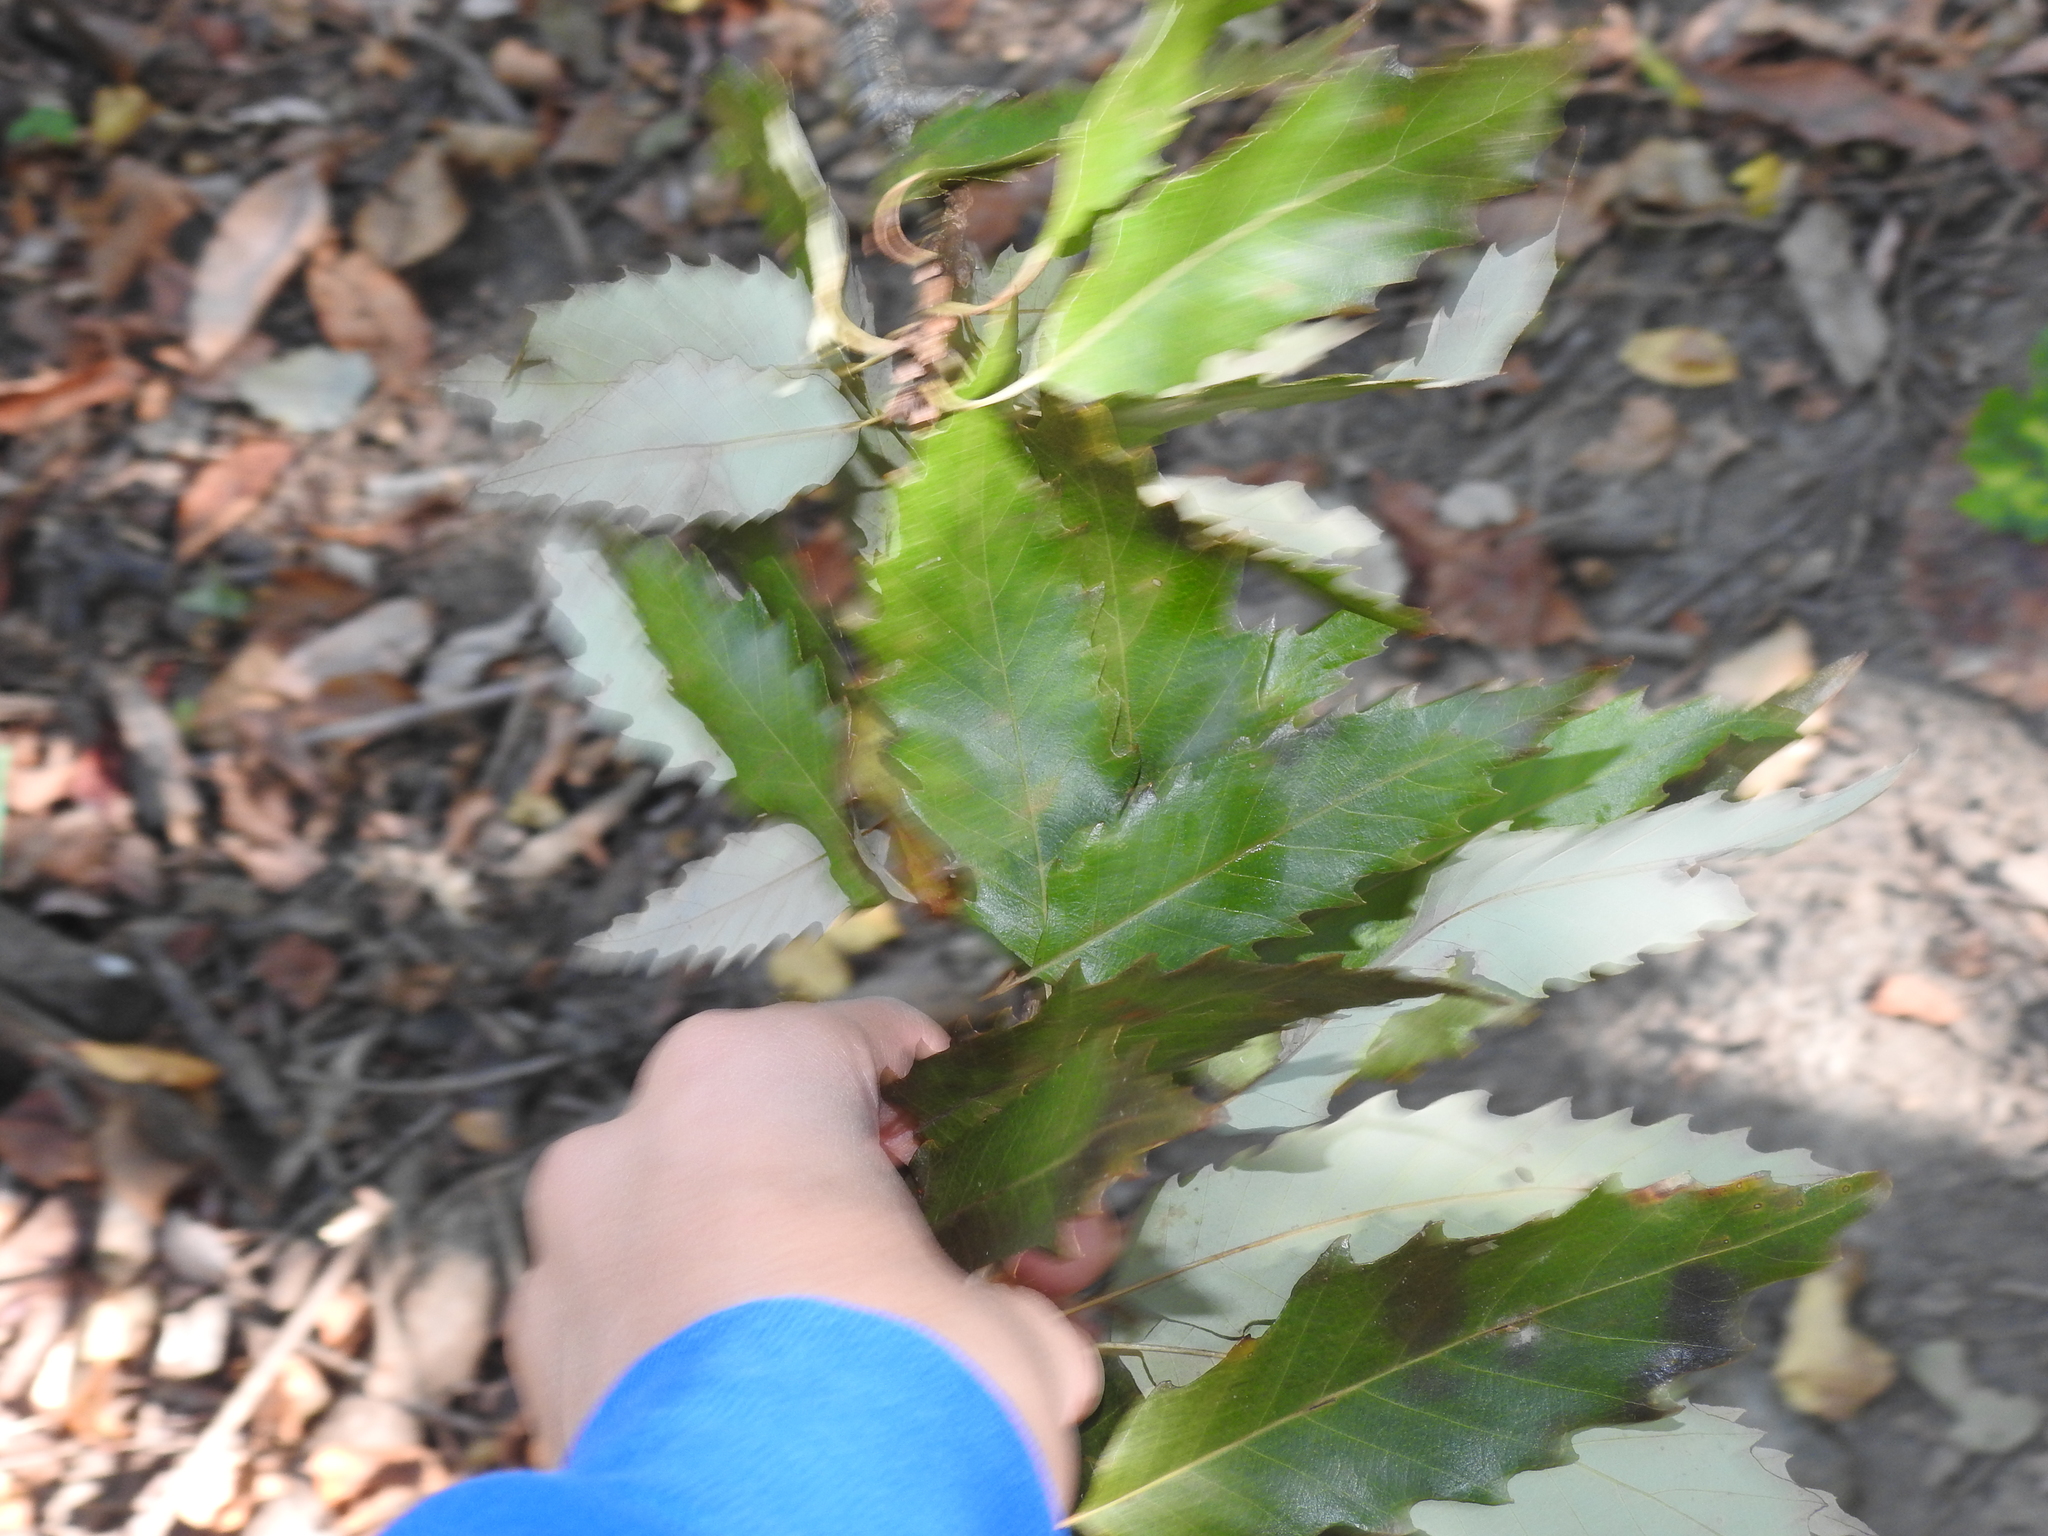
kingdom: Plantae
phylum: Tracheophyta
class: Magnoliopsida
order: Fagales
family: Fagaceae
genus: Quercus
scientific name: Quercus muehlenbergii
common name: Chinkapin oak
